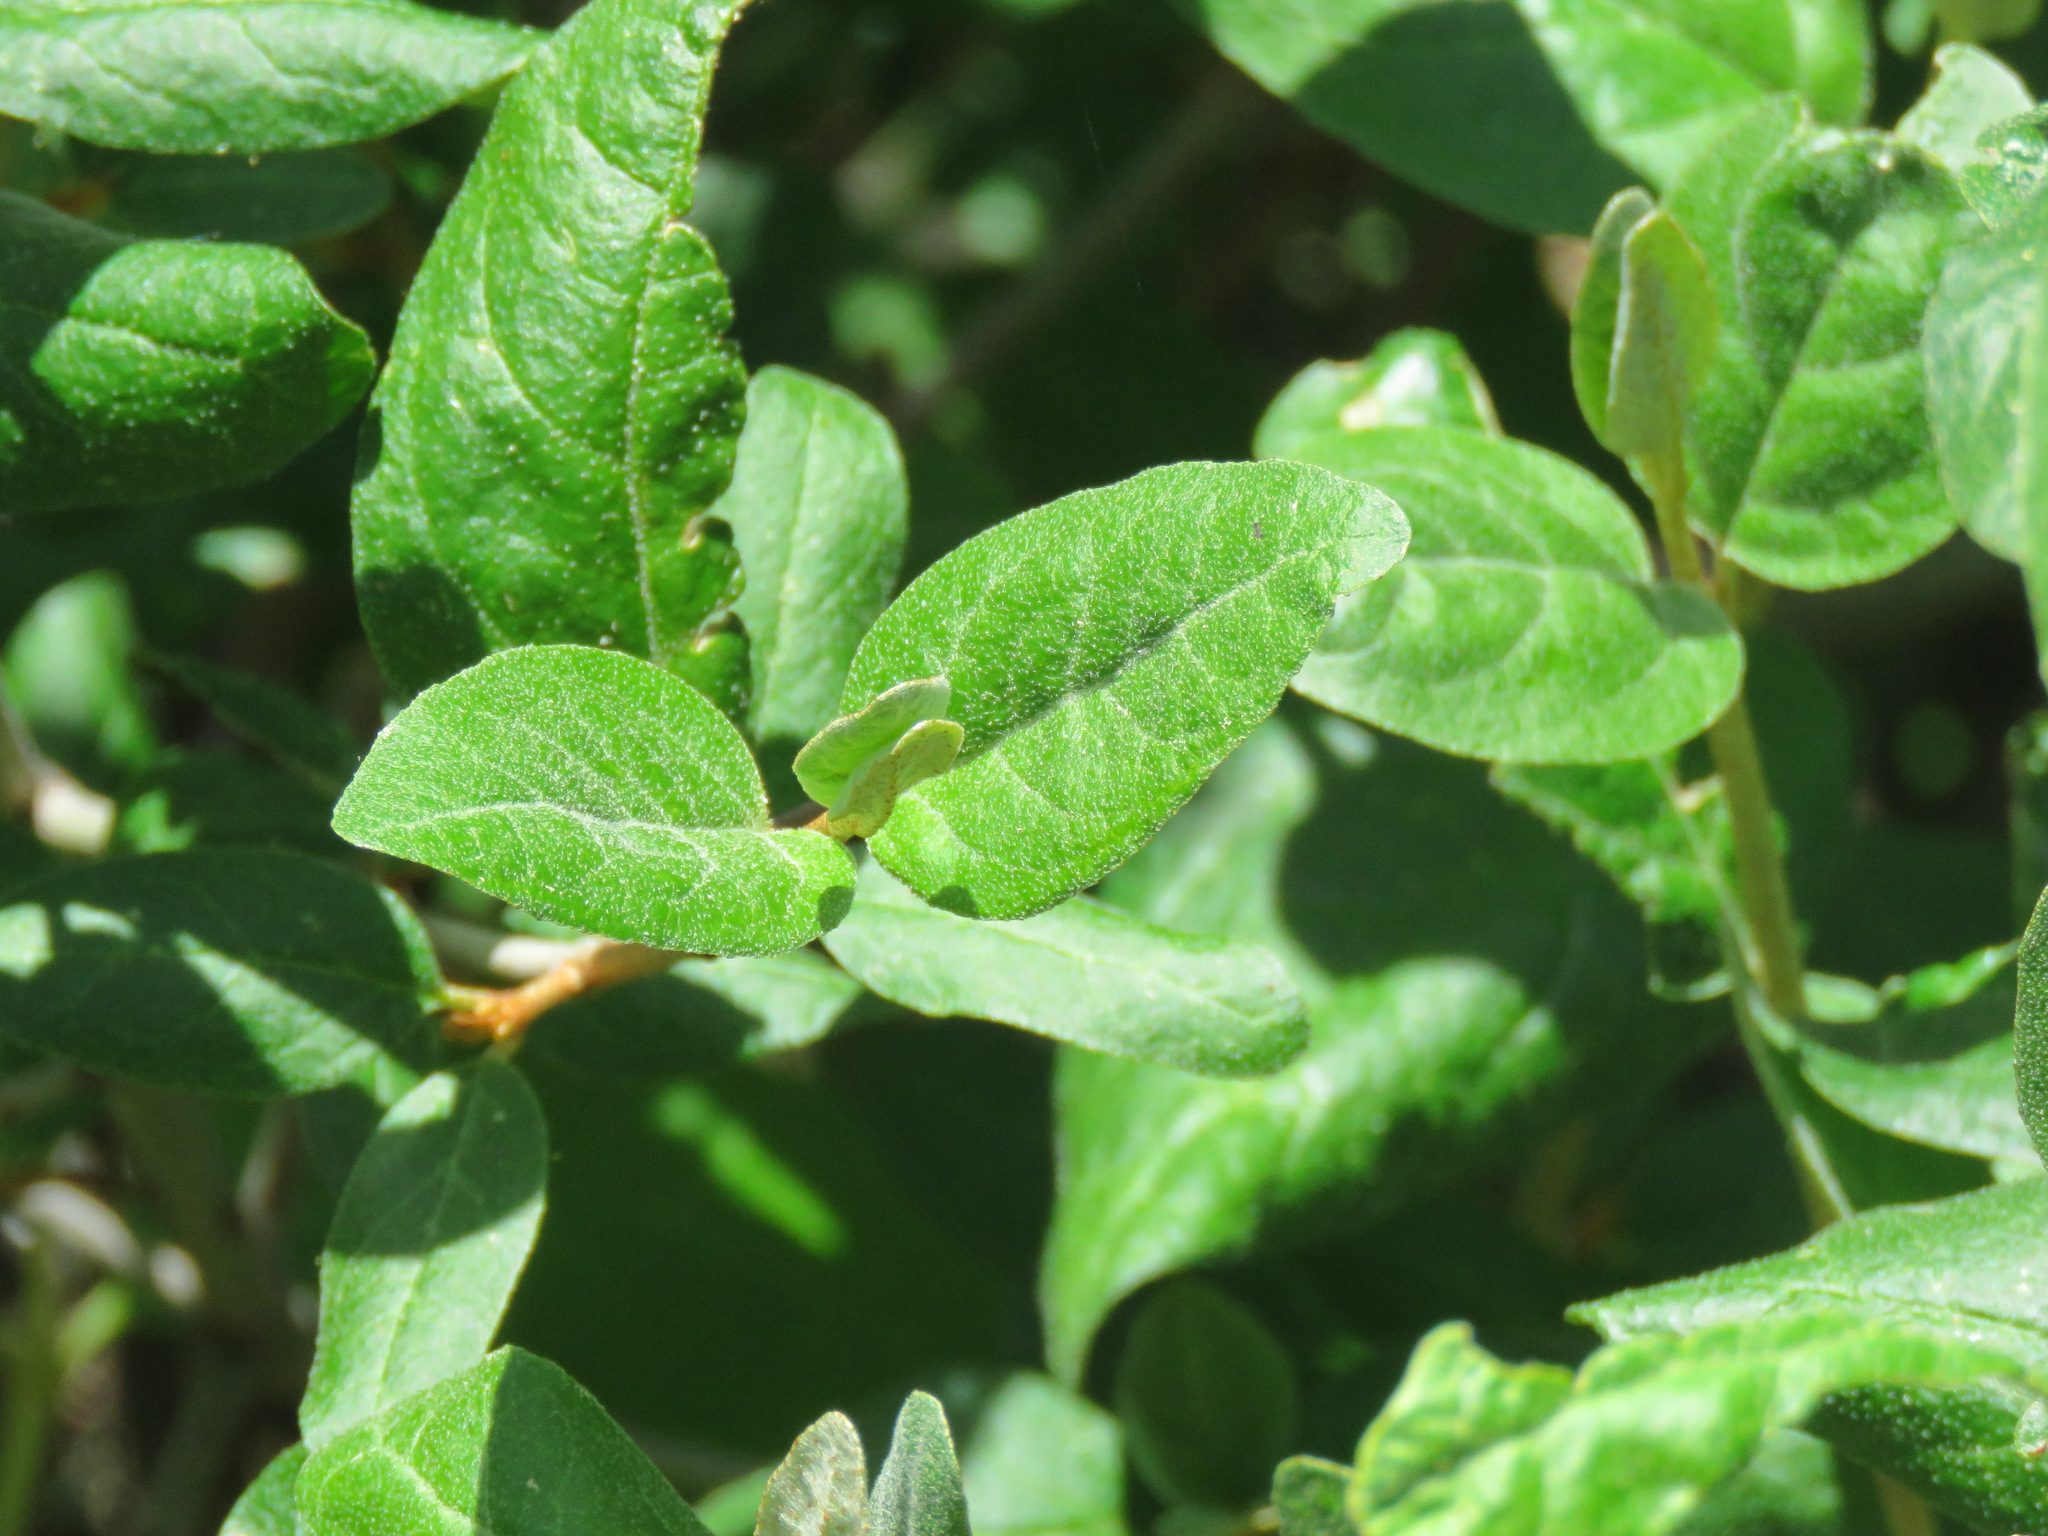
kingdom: Plantae
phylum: Tracheophyta
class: Magnoliopsida
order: Rosales
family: Elaeagnaceae
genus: Shepherdia
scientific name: Shepherdia canadensis
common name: Soapberry
